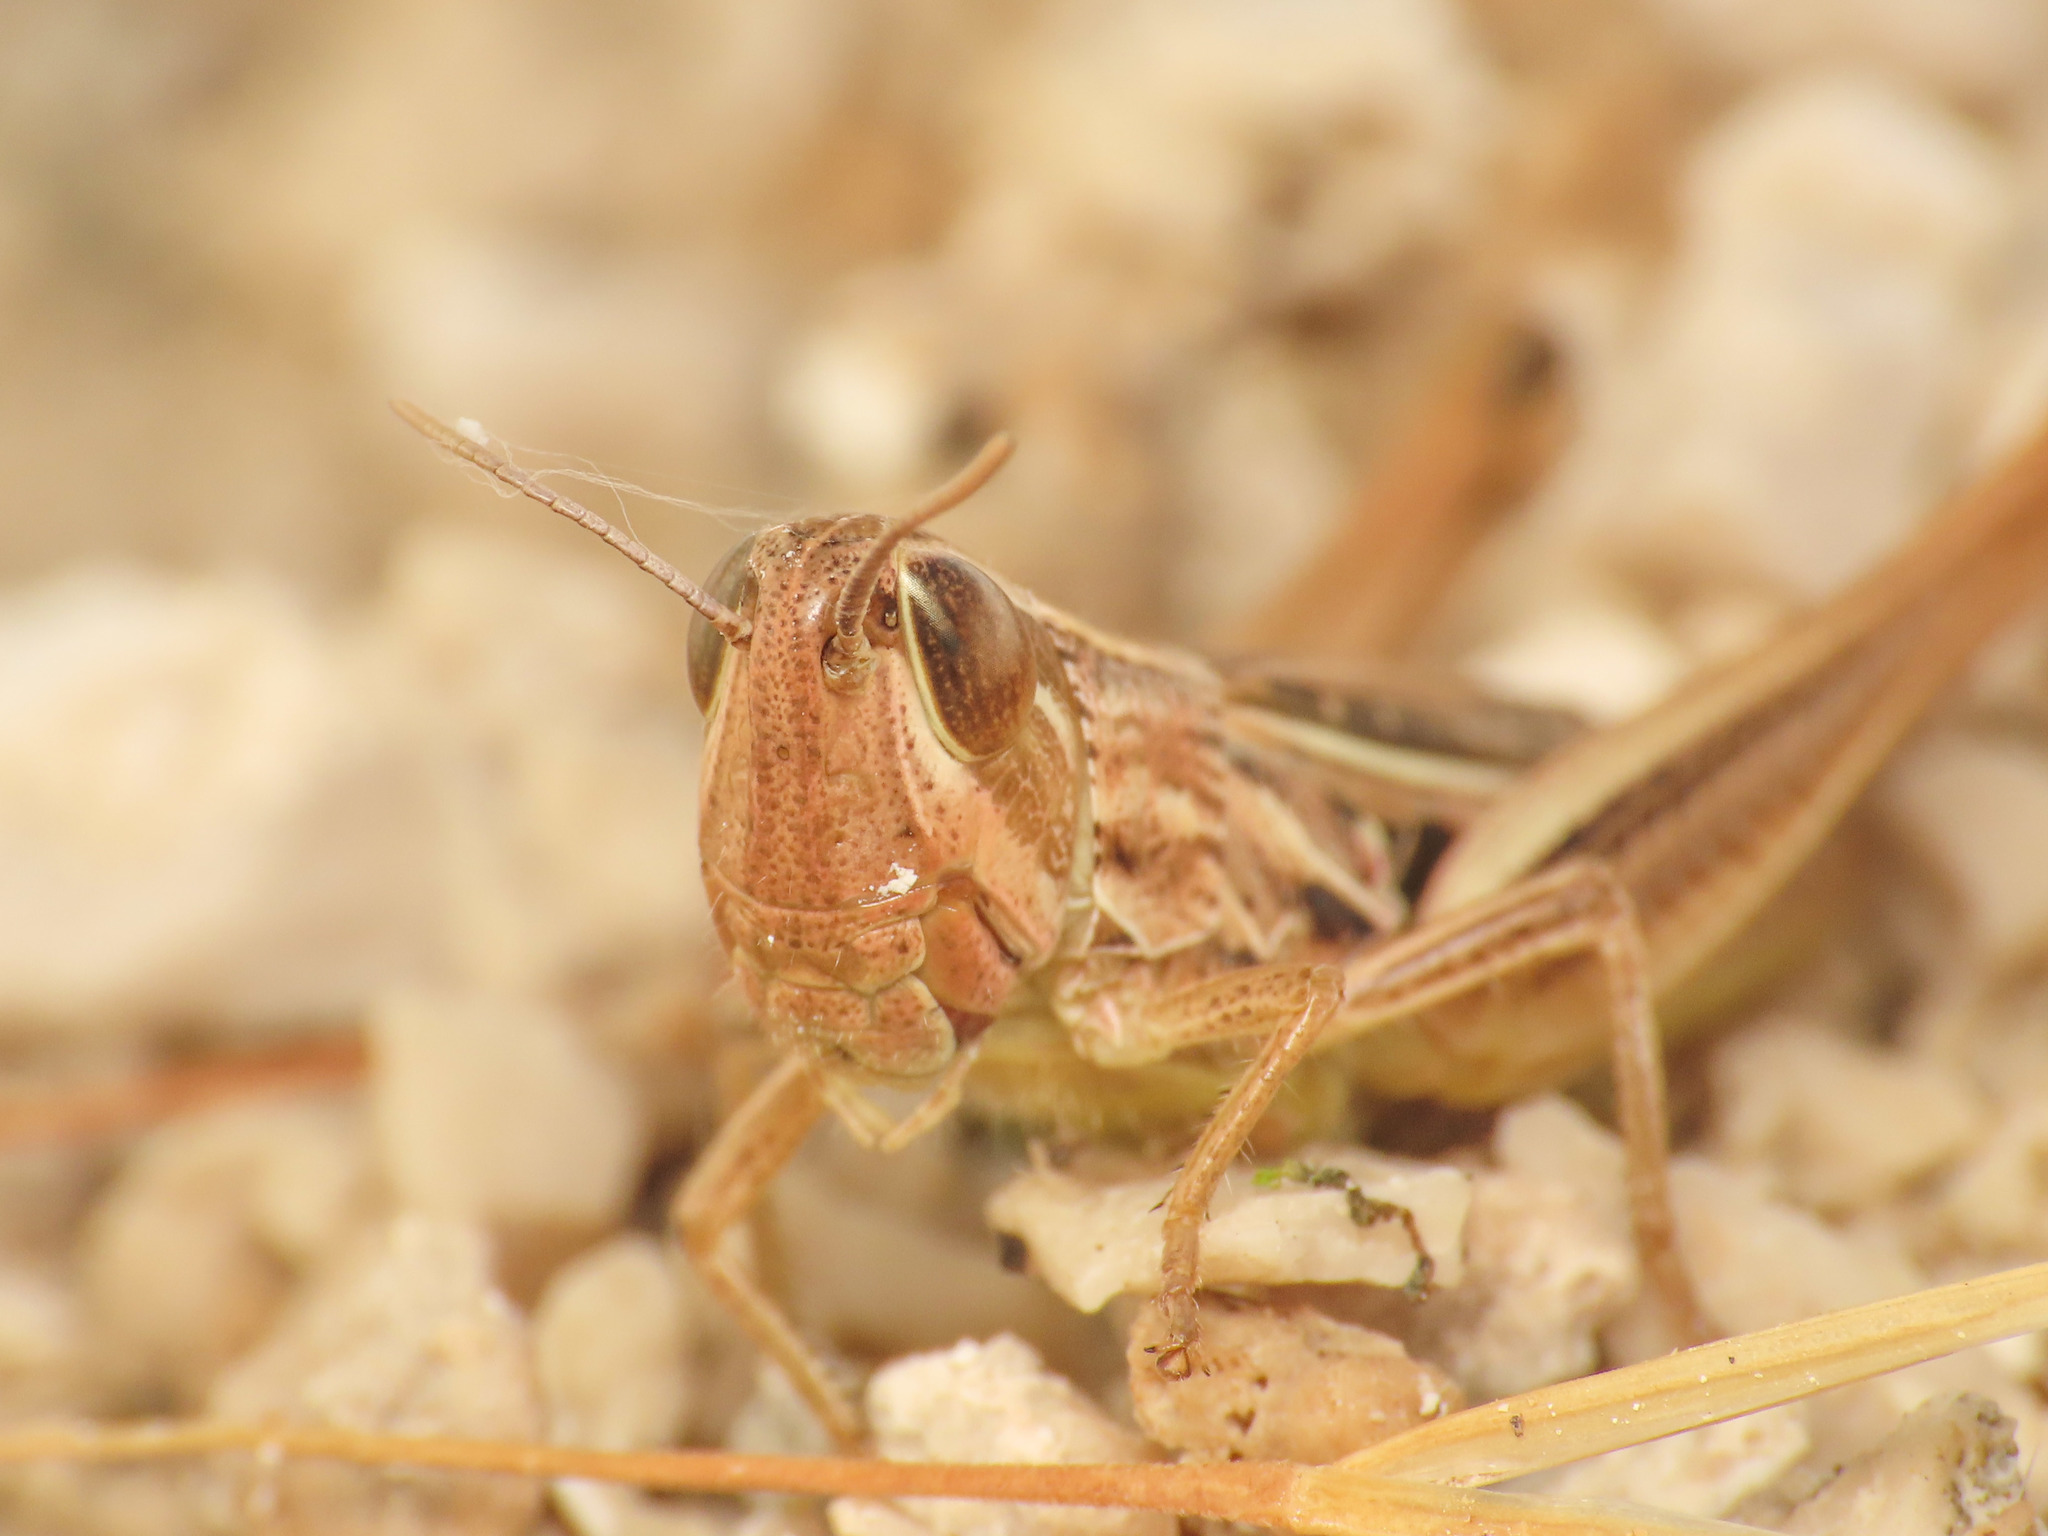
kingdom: Animalia
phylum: Arthropoda
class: Insecta
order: Orthoptera
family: Acrididae
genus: Euchorthippus
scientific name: Euchorthippus declivus
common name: Common straw grasshopper
